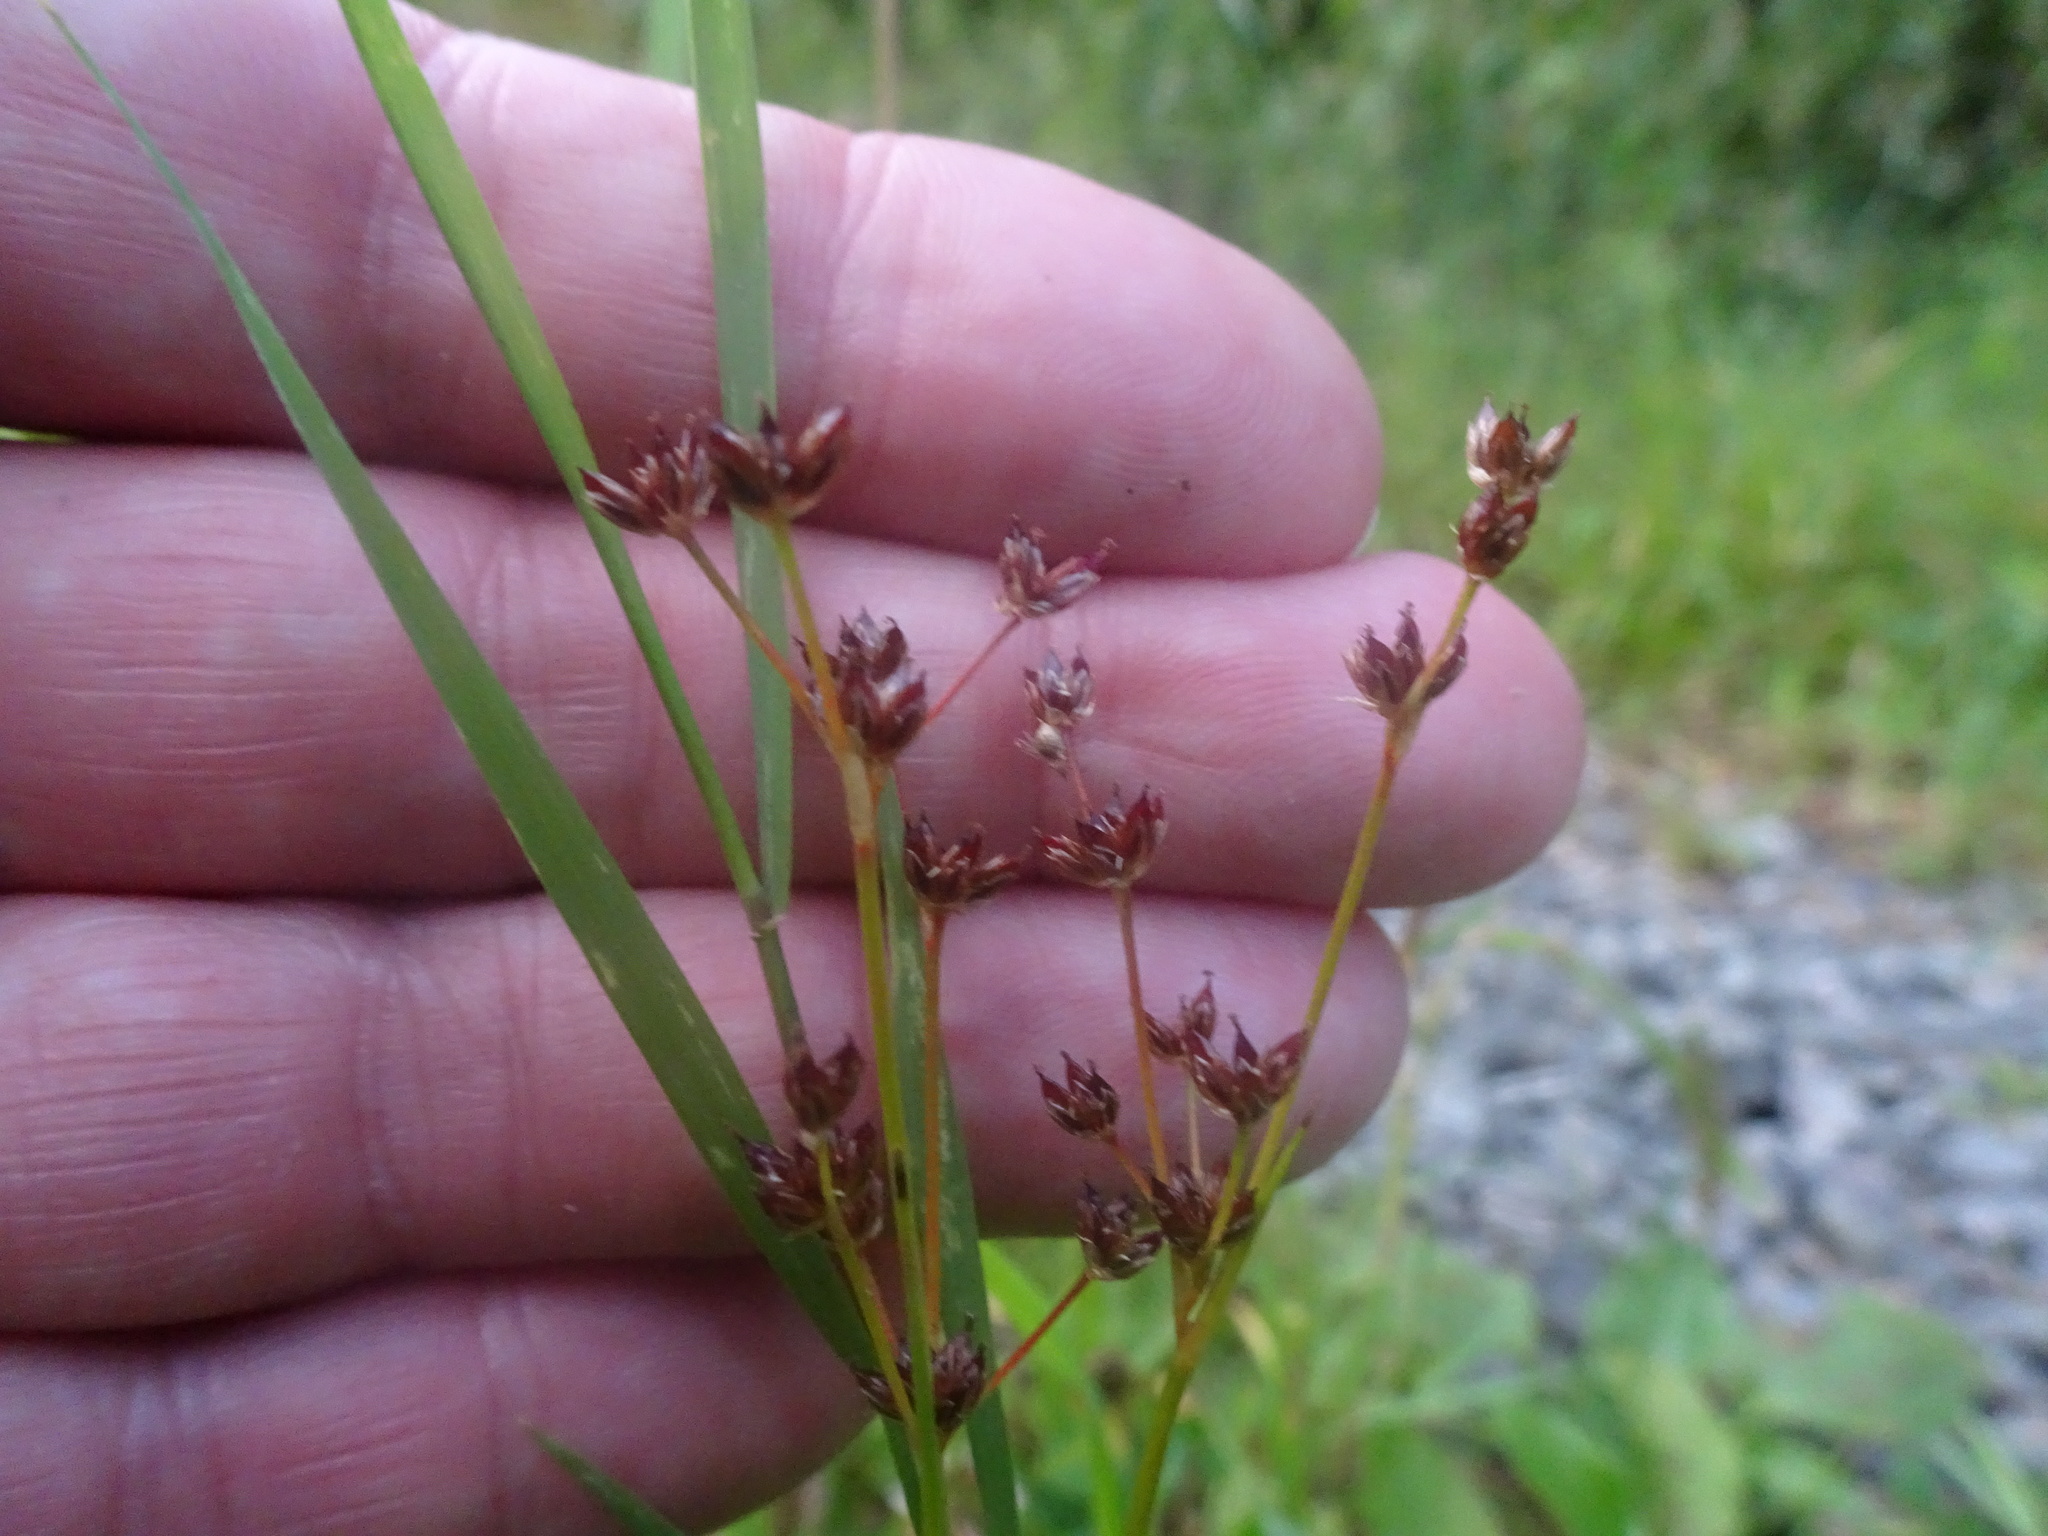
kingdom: Plantae
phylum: Tracheophyta
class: Liliopsida
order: Poales
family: Juncaceae
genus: Juncus
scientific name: Juncus articulatus
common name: Jointed rush
